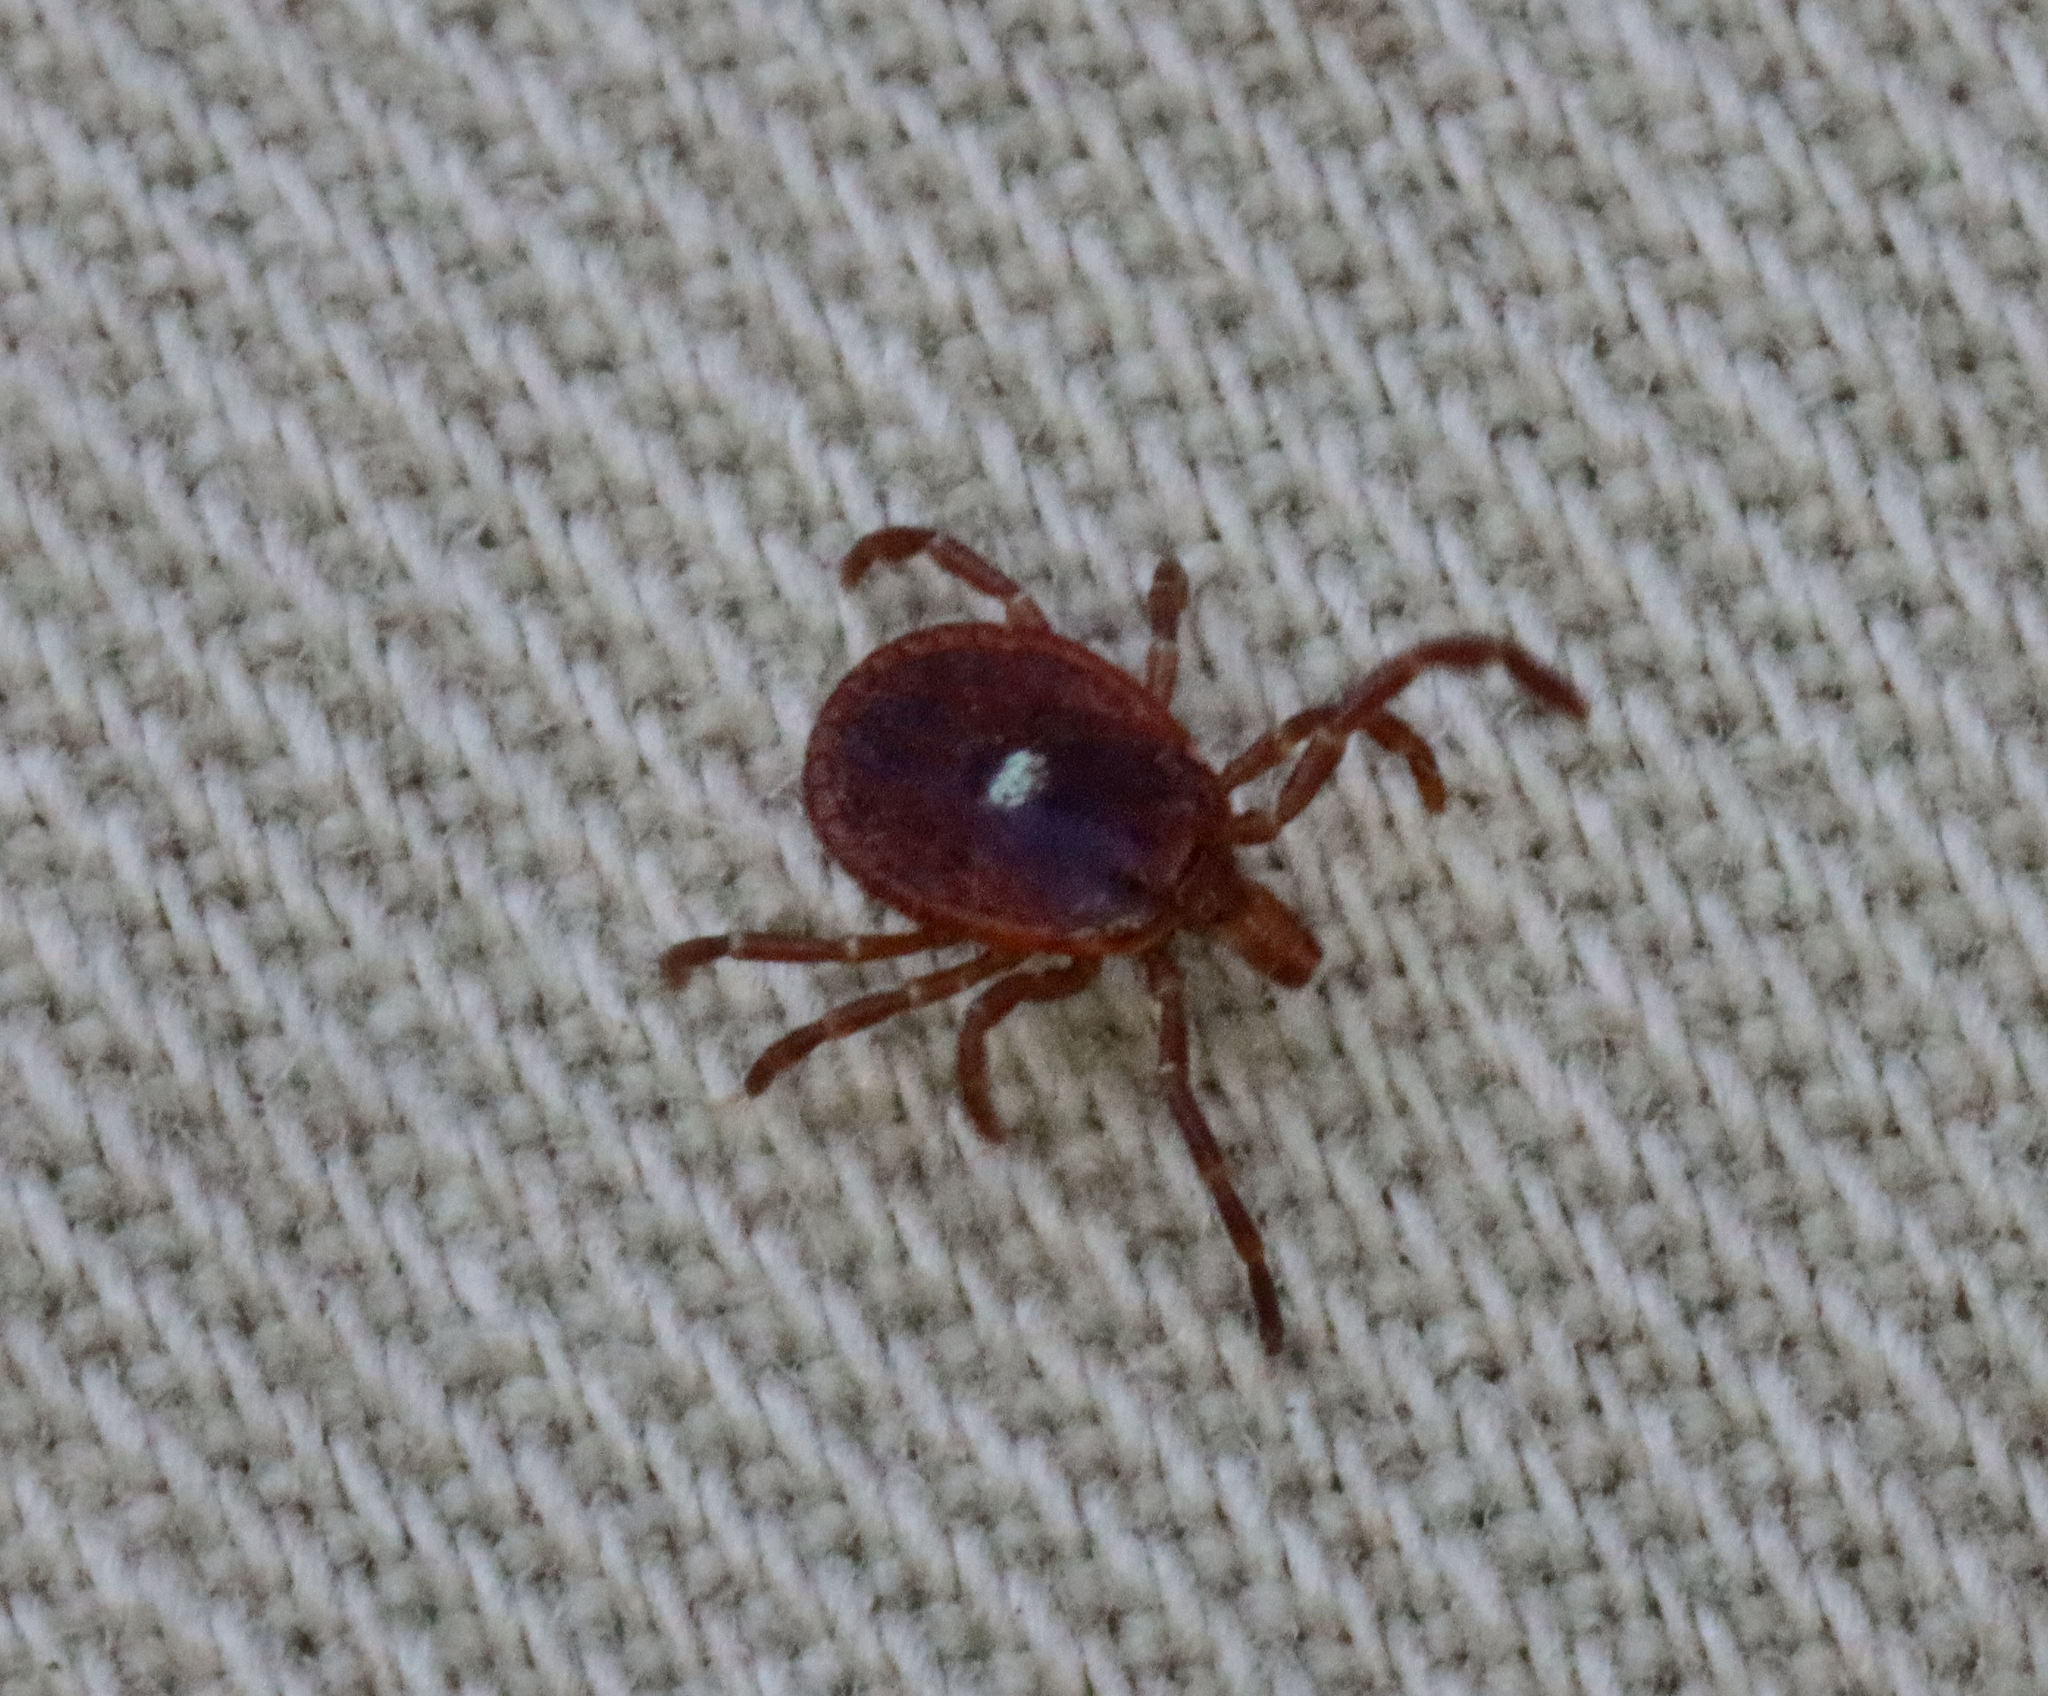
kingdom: Animalia
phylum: Arthropoda
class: Arachnida
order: Ixodida
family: Ixodidae
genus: Amblyomma
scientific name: Amblyomma americanum
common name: Lone star tick
